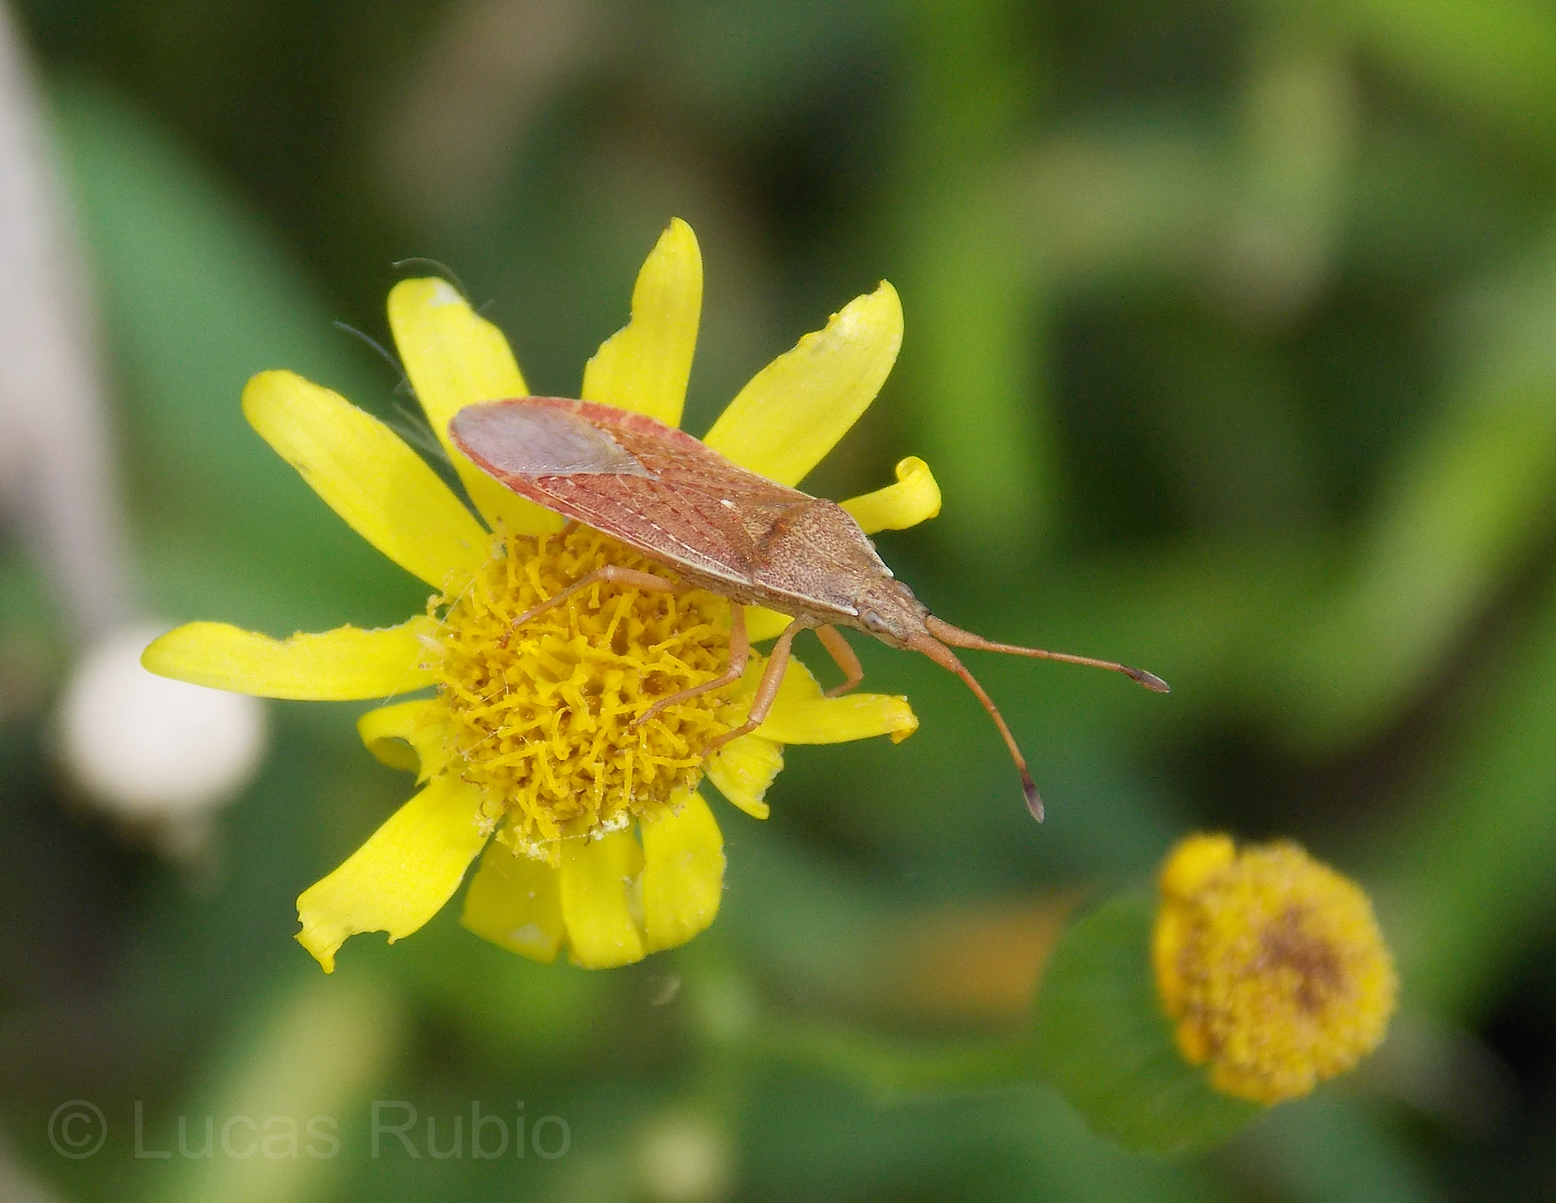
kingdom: Animalia
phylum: Arthropoda
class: Insecta
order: Hemiptera
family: Coreidae
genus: Althos
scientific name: Althos pallescens
